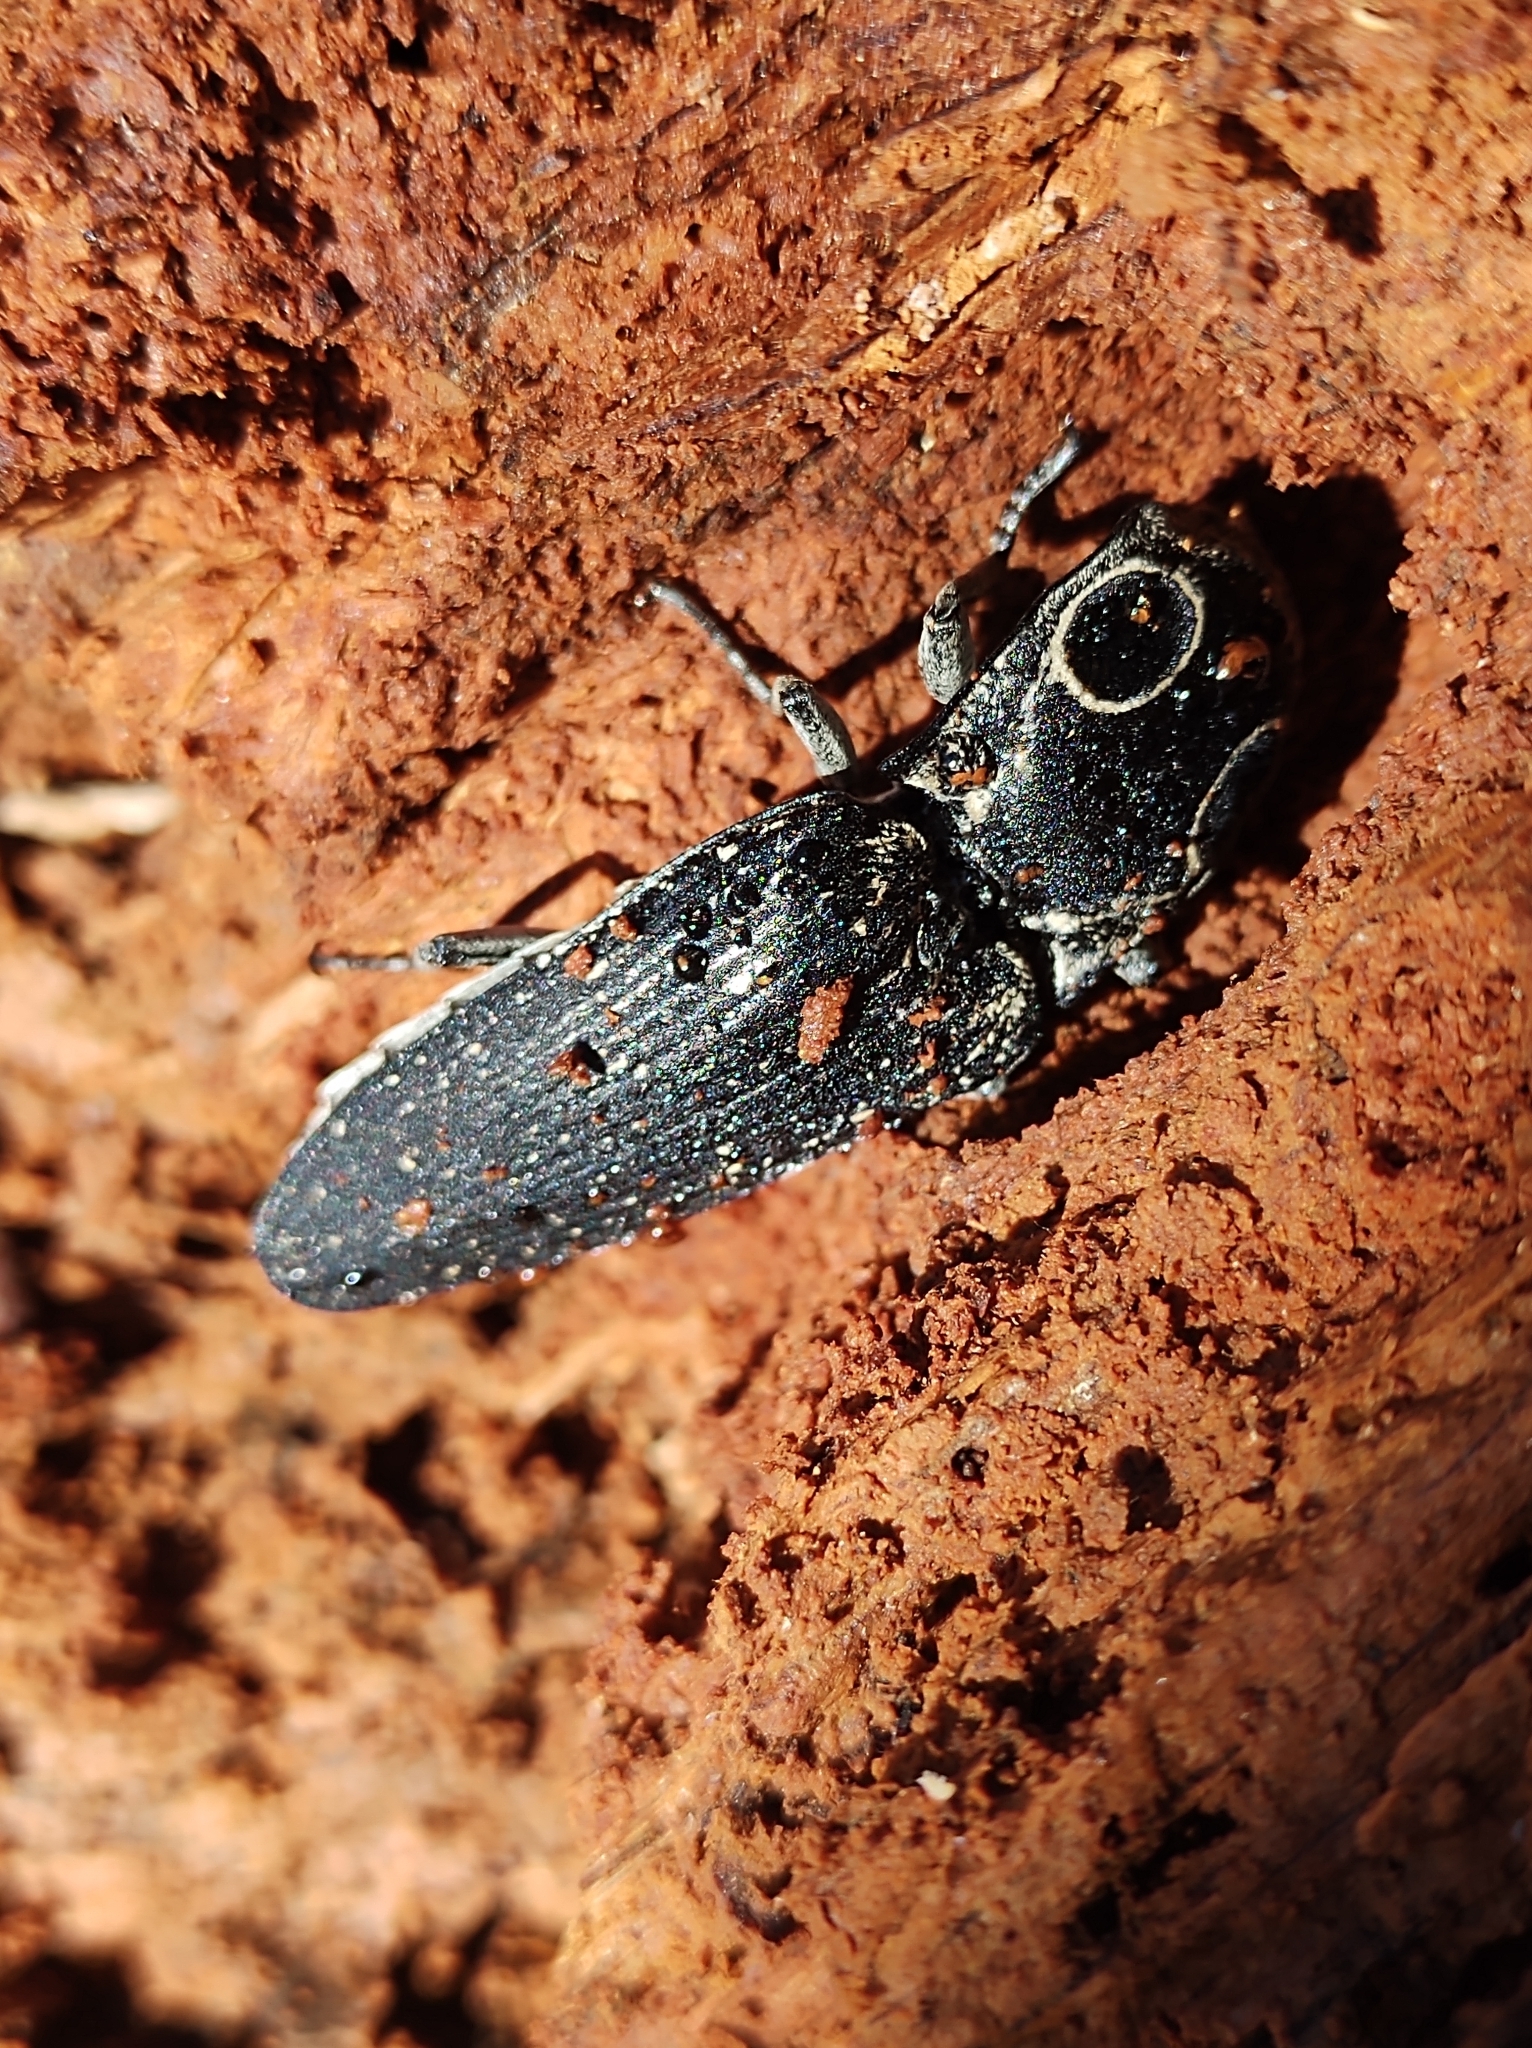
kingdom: Animalia
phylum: Arthropoda
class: Insecta
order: Coleoptera
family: Elateridae
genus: Alaus
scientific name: Alaus oculatus
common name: Eastern eyed click beetle
